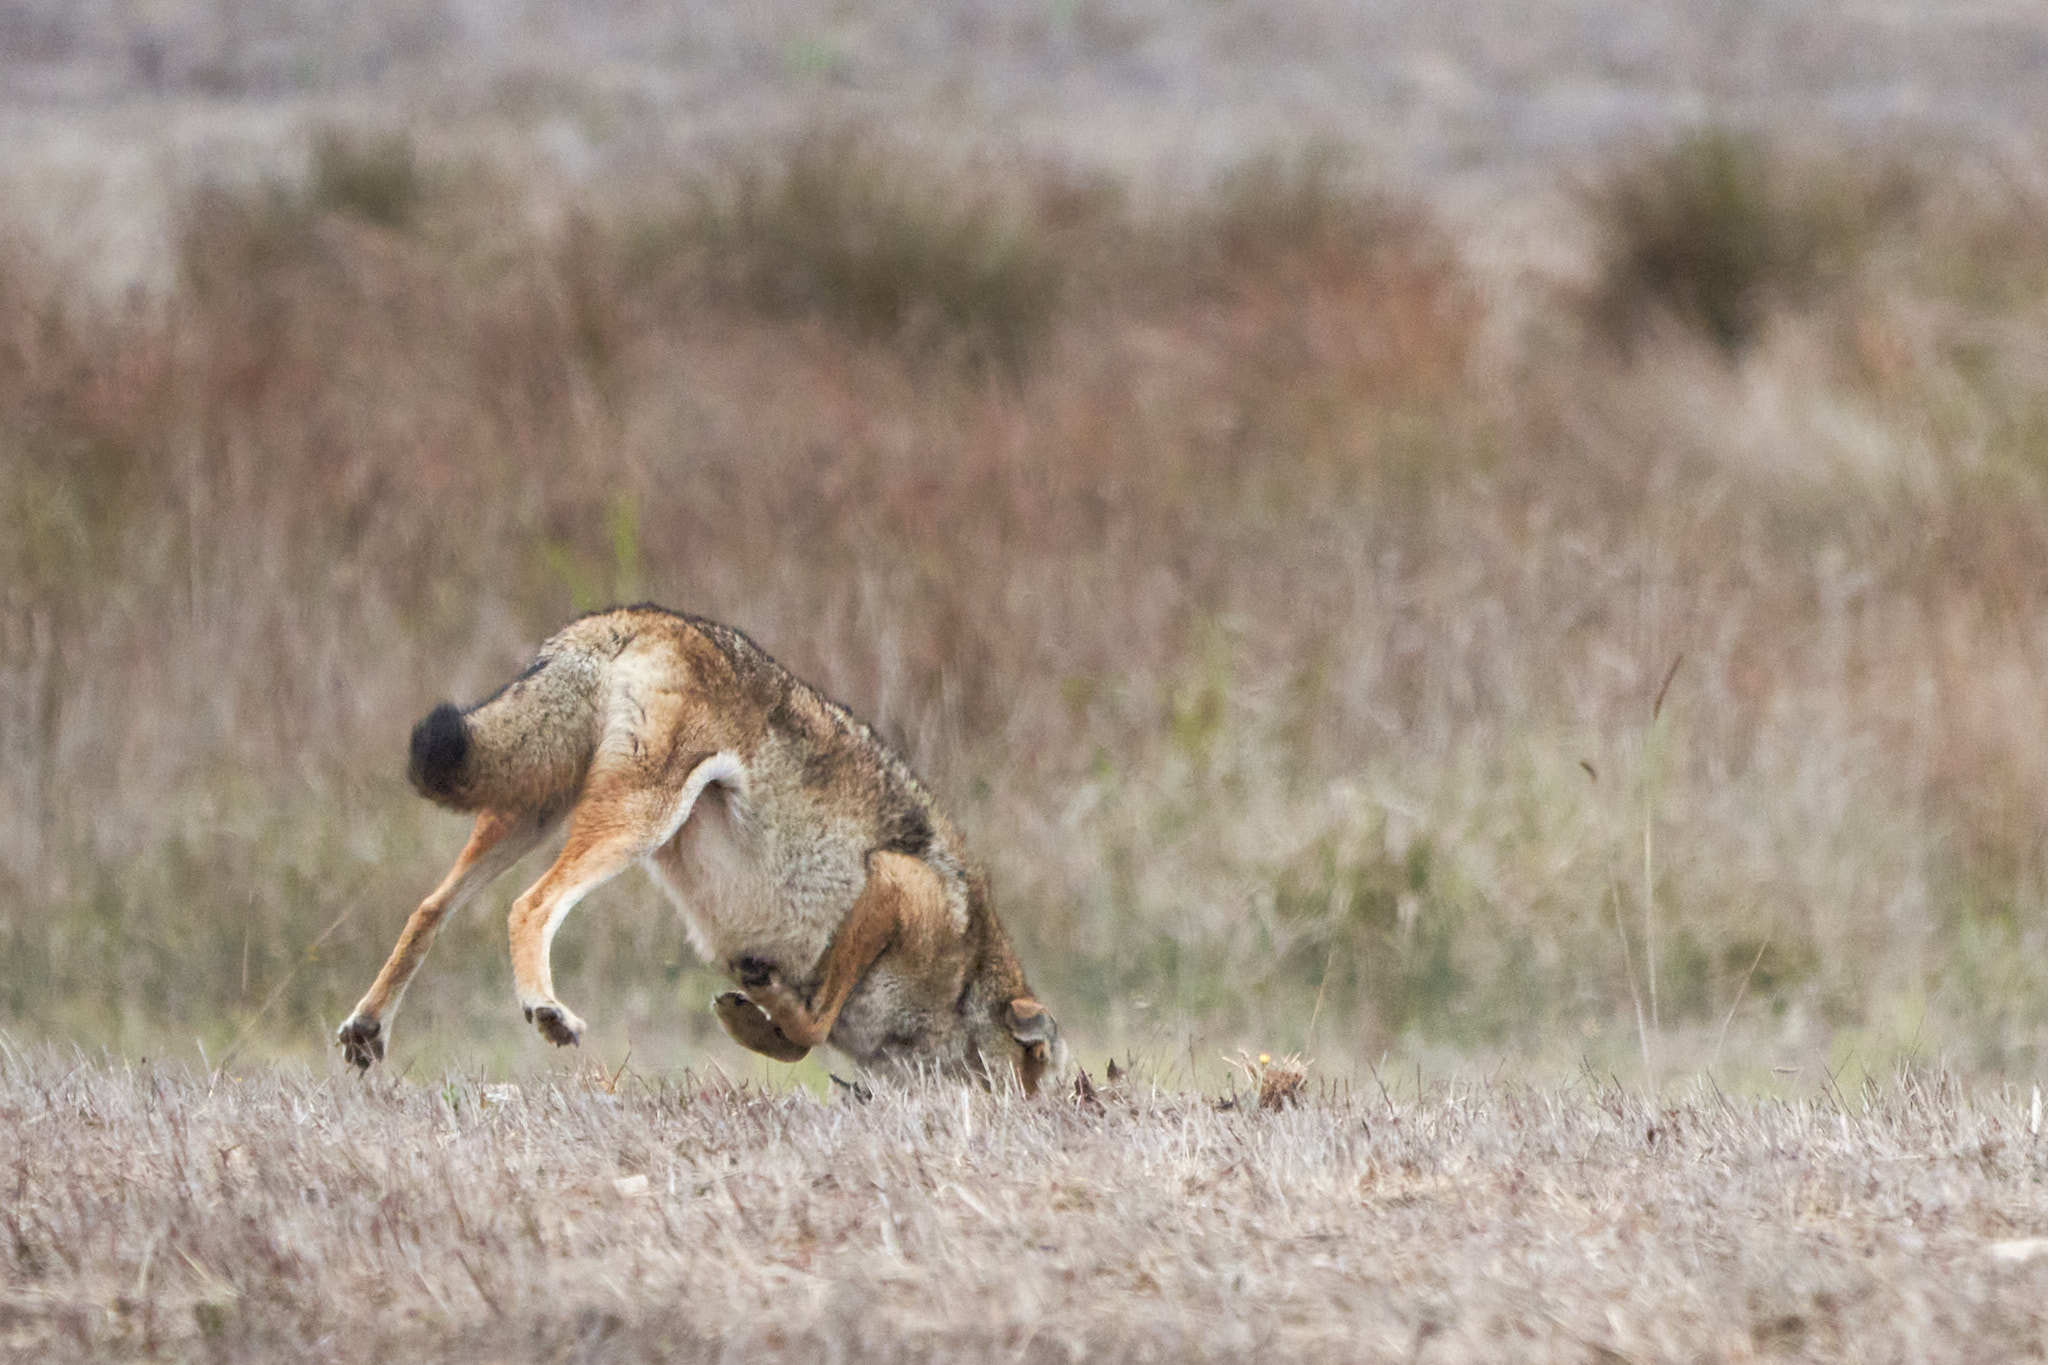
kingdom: Animalia
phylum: Chordata
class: Mammalia
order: Carnivora
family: Canidae
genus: Canis
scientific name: Canis latrans
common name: Coyote
